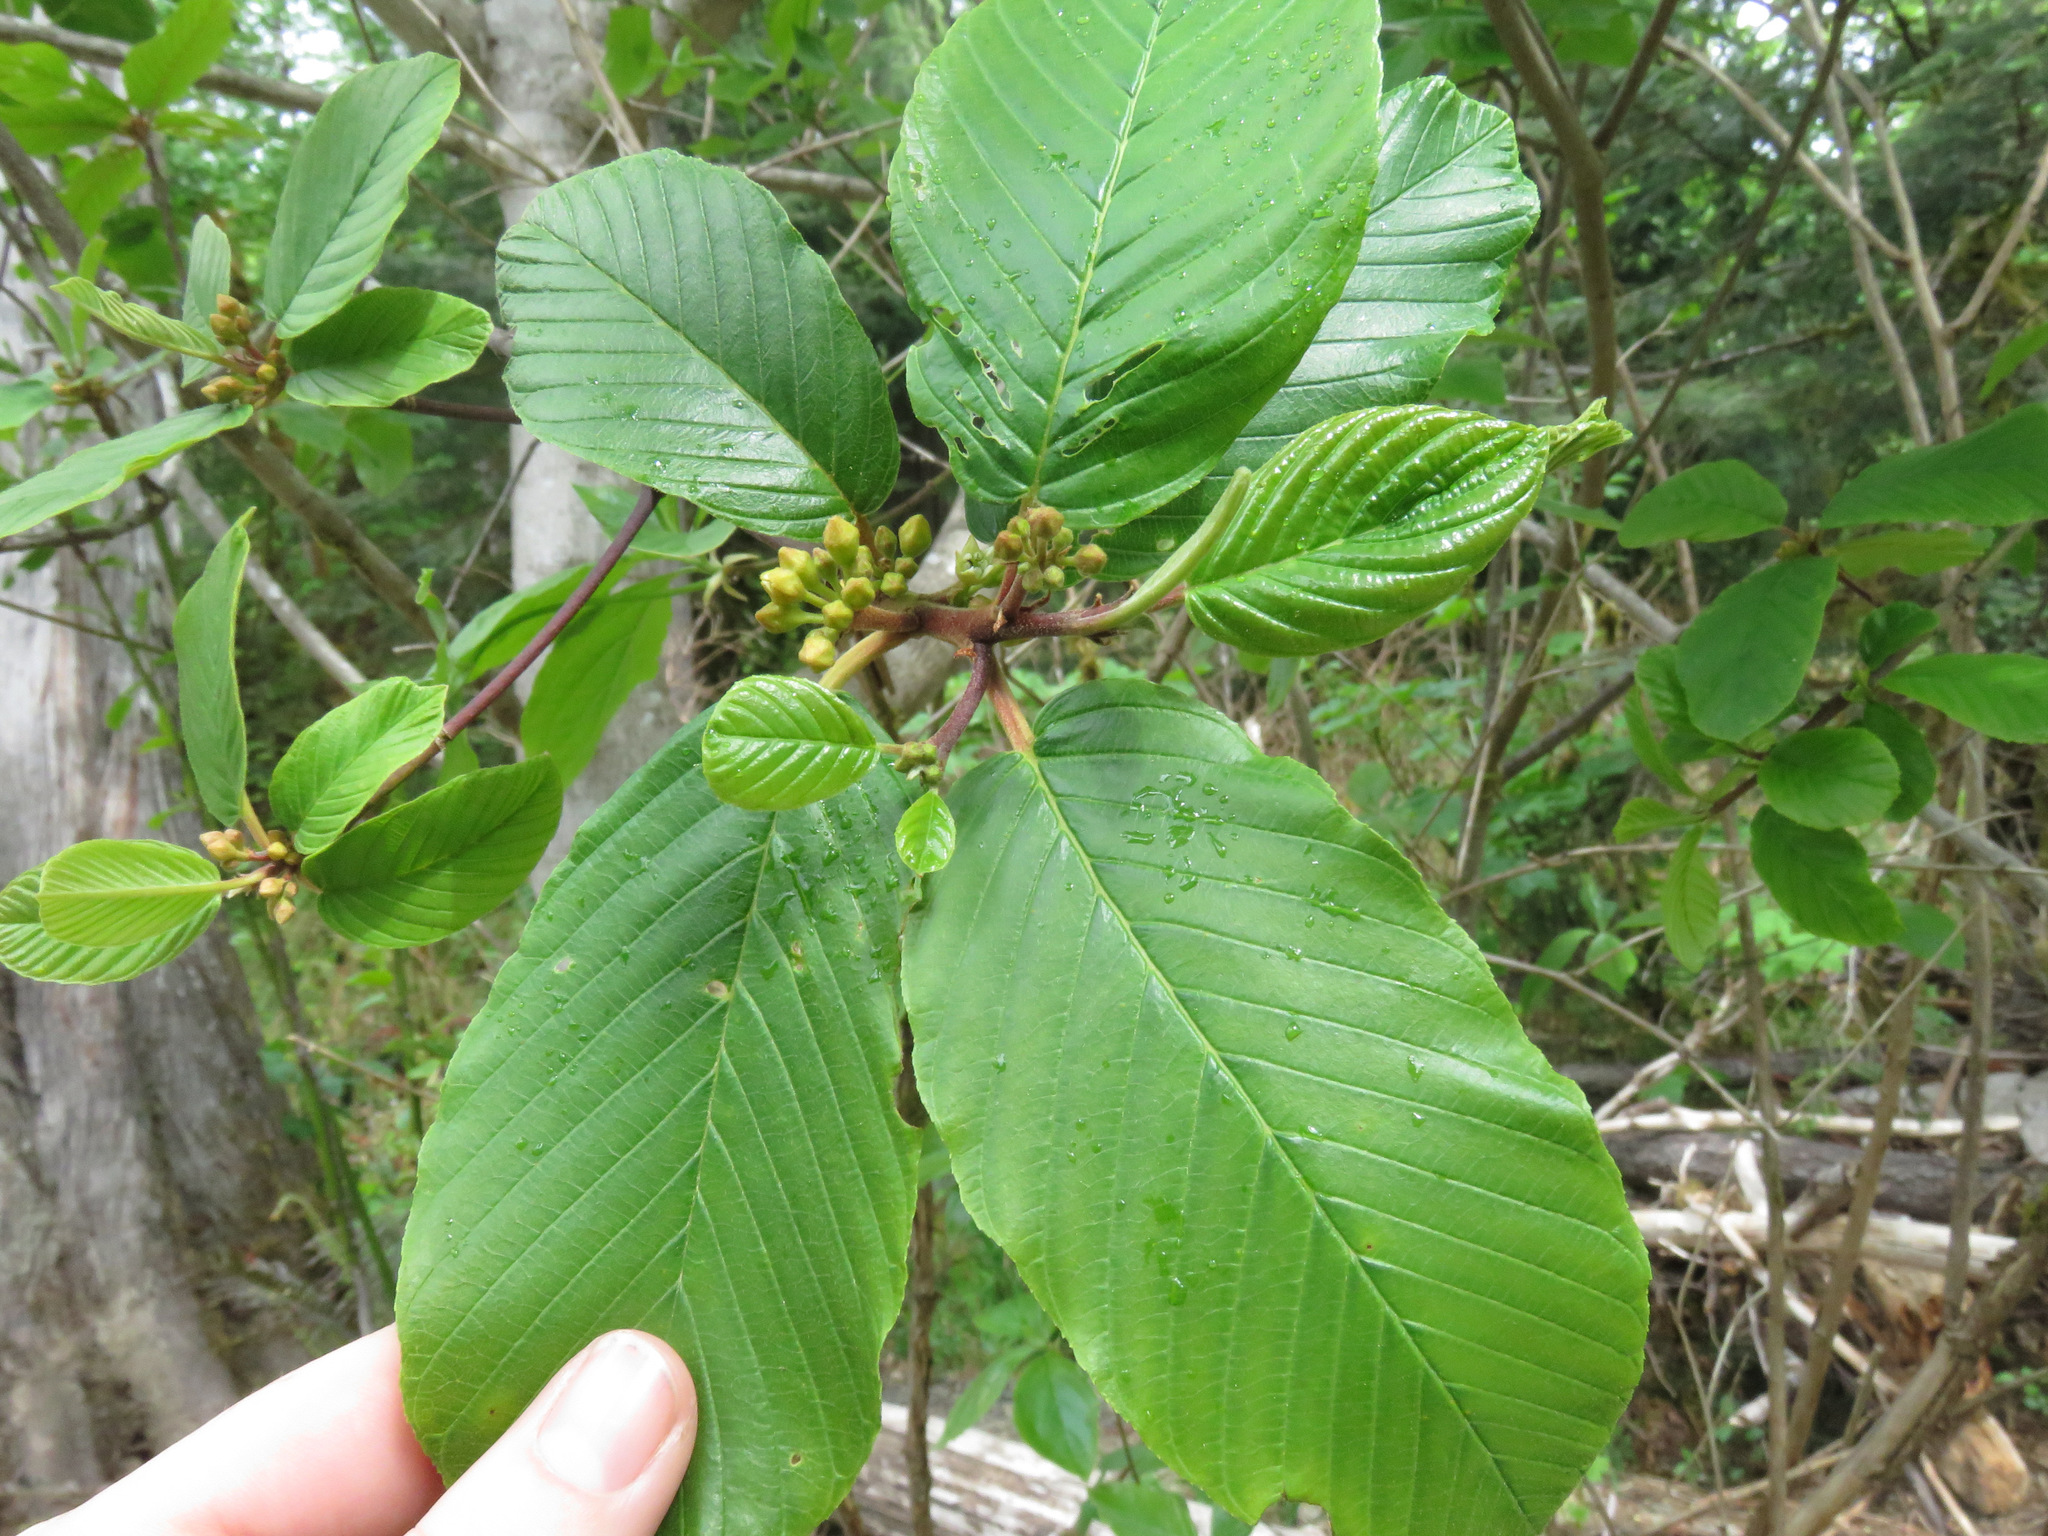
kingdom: Plantae
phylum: Tracheophyta
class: Magnoliopsida
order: Rosales
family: Rhamnaceae
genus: Frangula
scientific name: Frangula purshiana
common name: Cascara buckthorn
